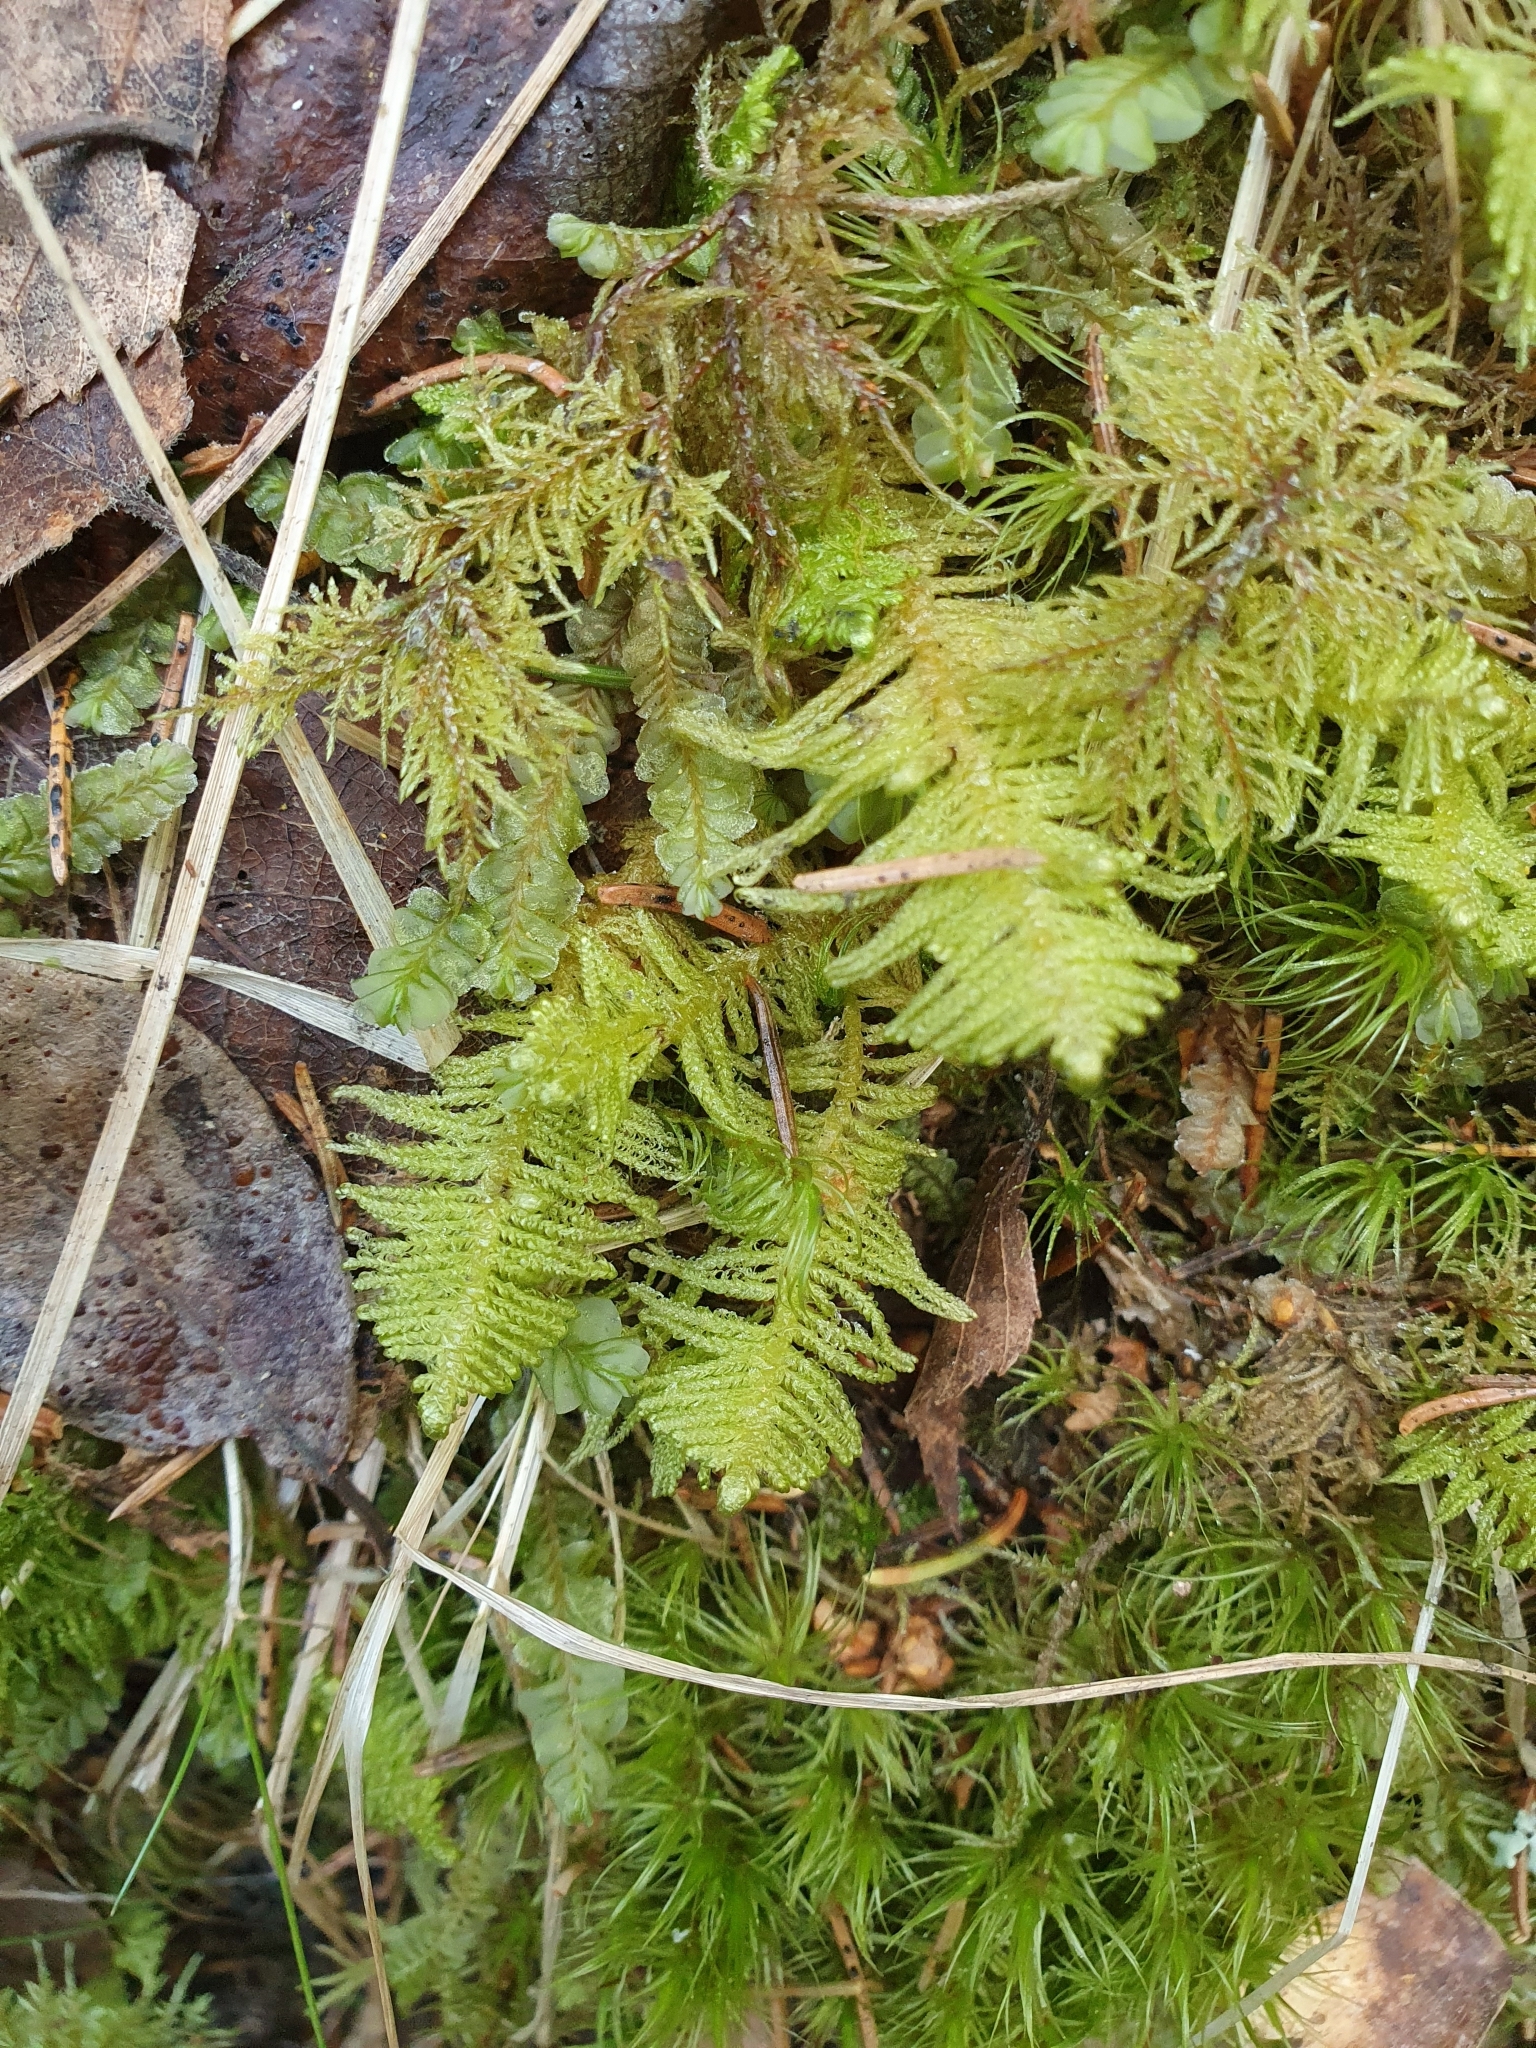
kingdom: Plantae
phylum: Bryophyta
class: Bryopsida
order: Hypnales
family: Pylaisiaceae
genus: Ptilium
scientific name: Ptilium crista-castrensis
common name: Knight's plume moss
